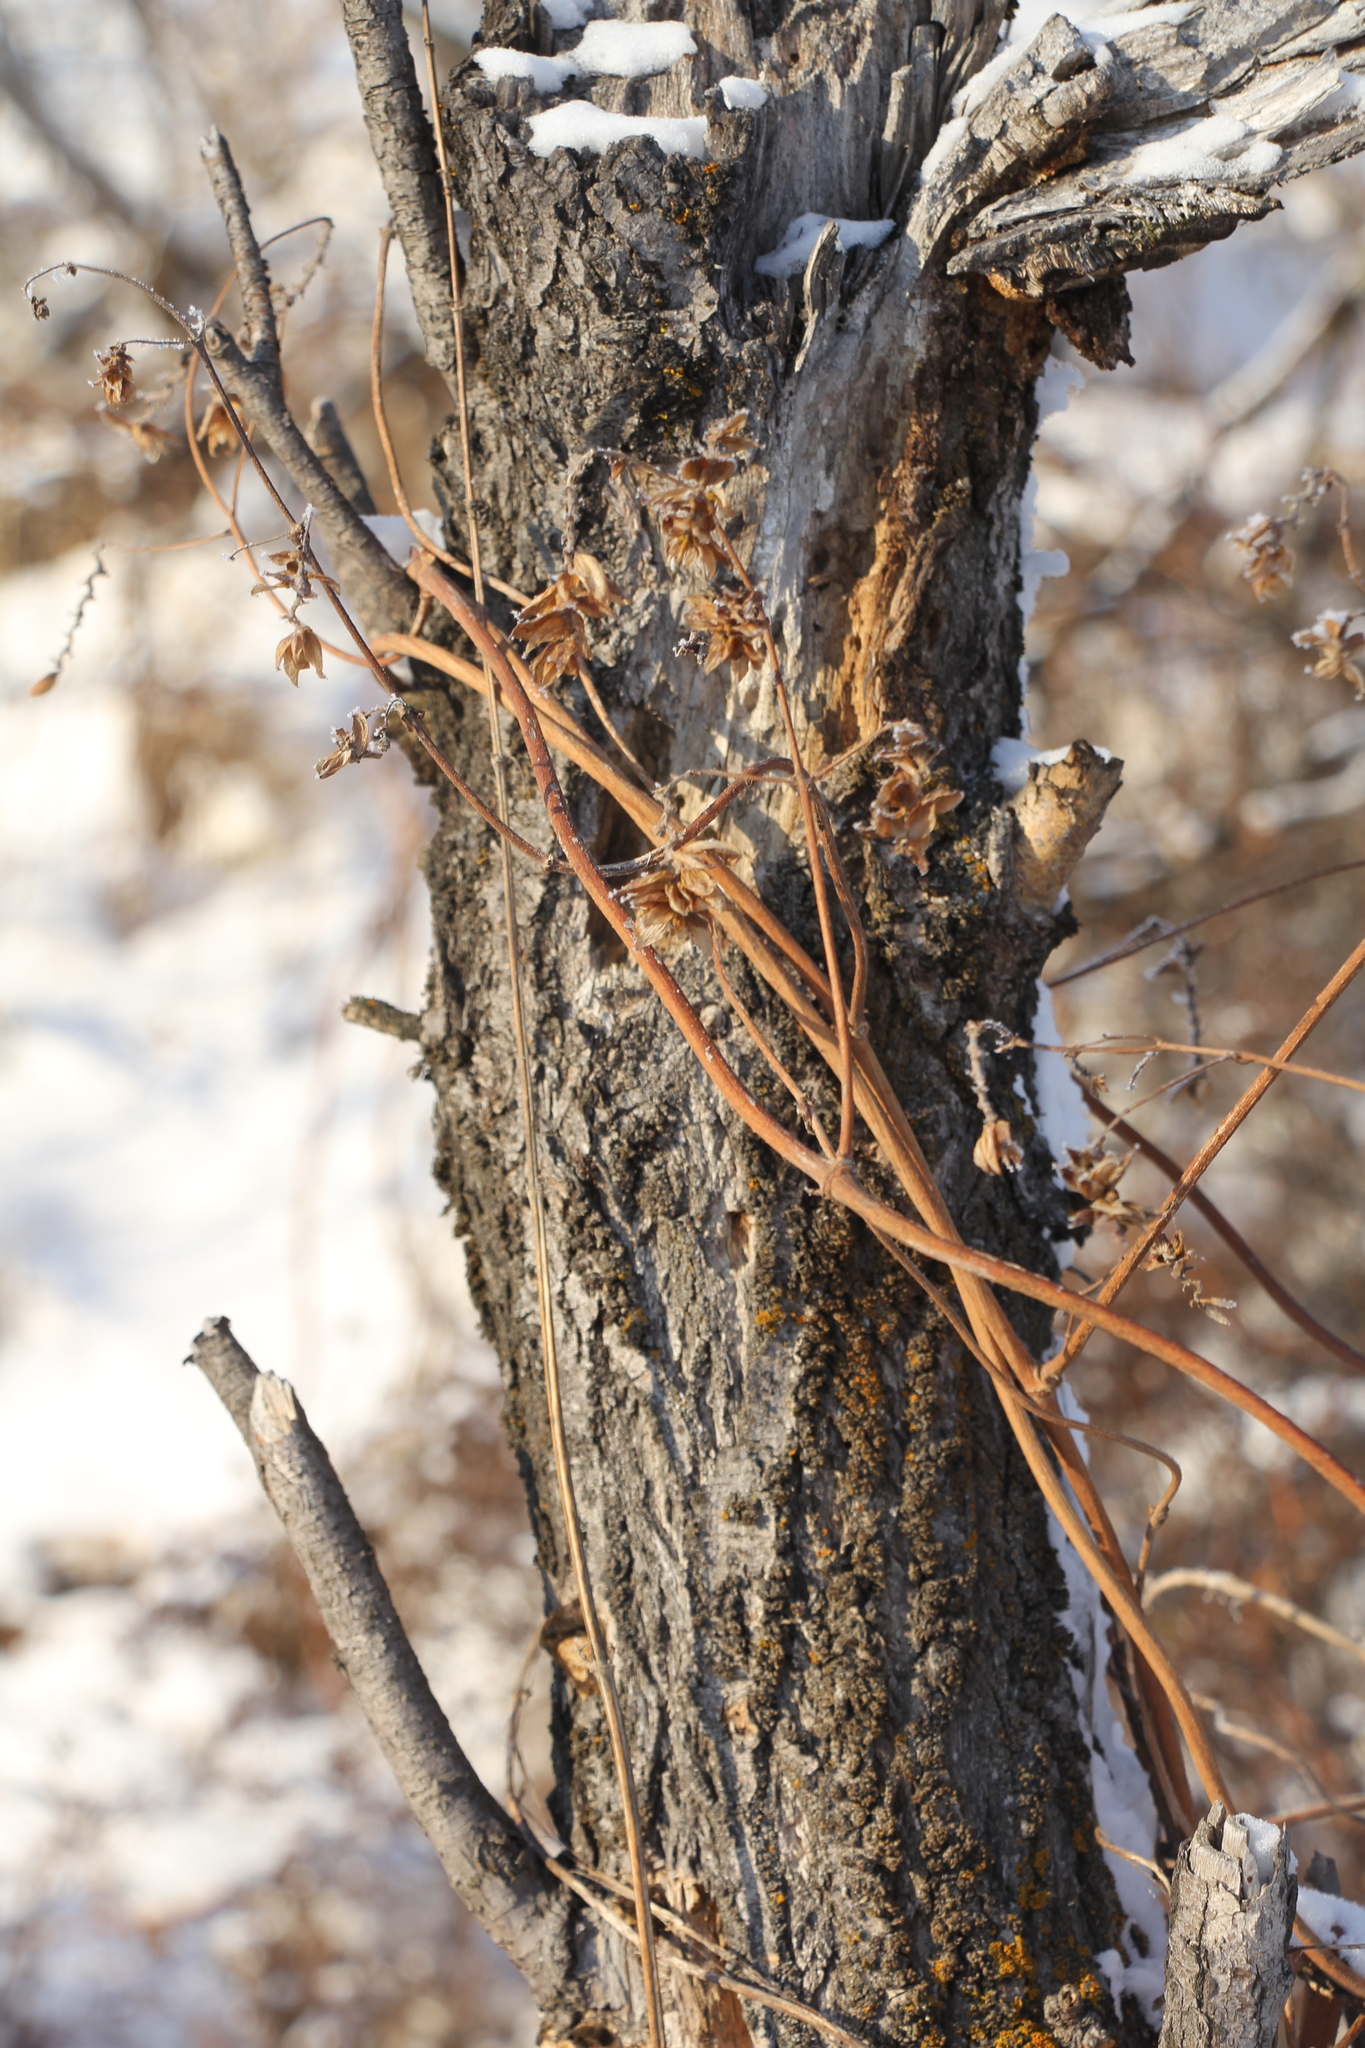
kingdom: Plantae
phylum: Tracheophyta
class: Magnoliopsida
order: Rosales
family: Cannabaceae
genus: Humulus
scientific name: Humulus lupulus
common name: Hop
